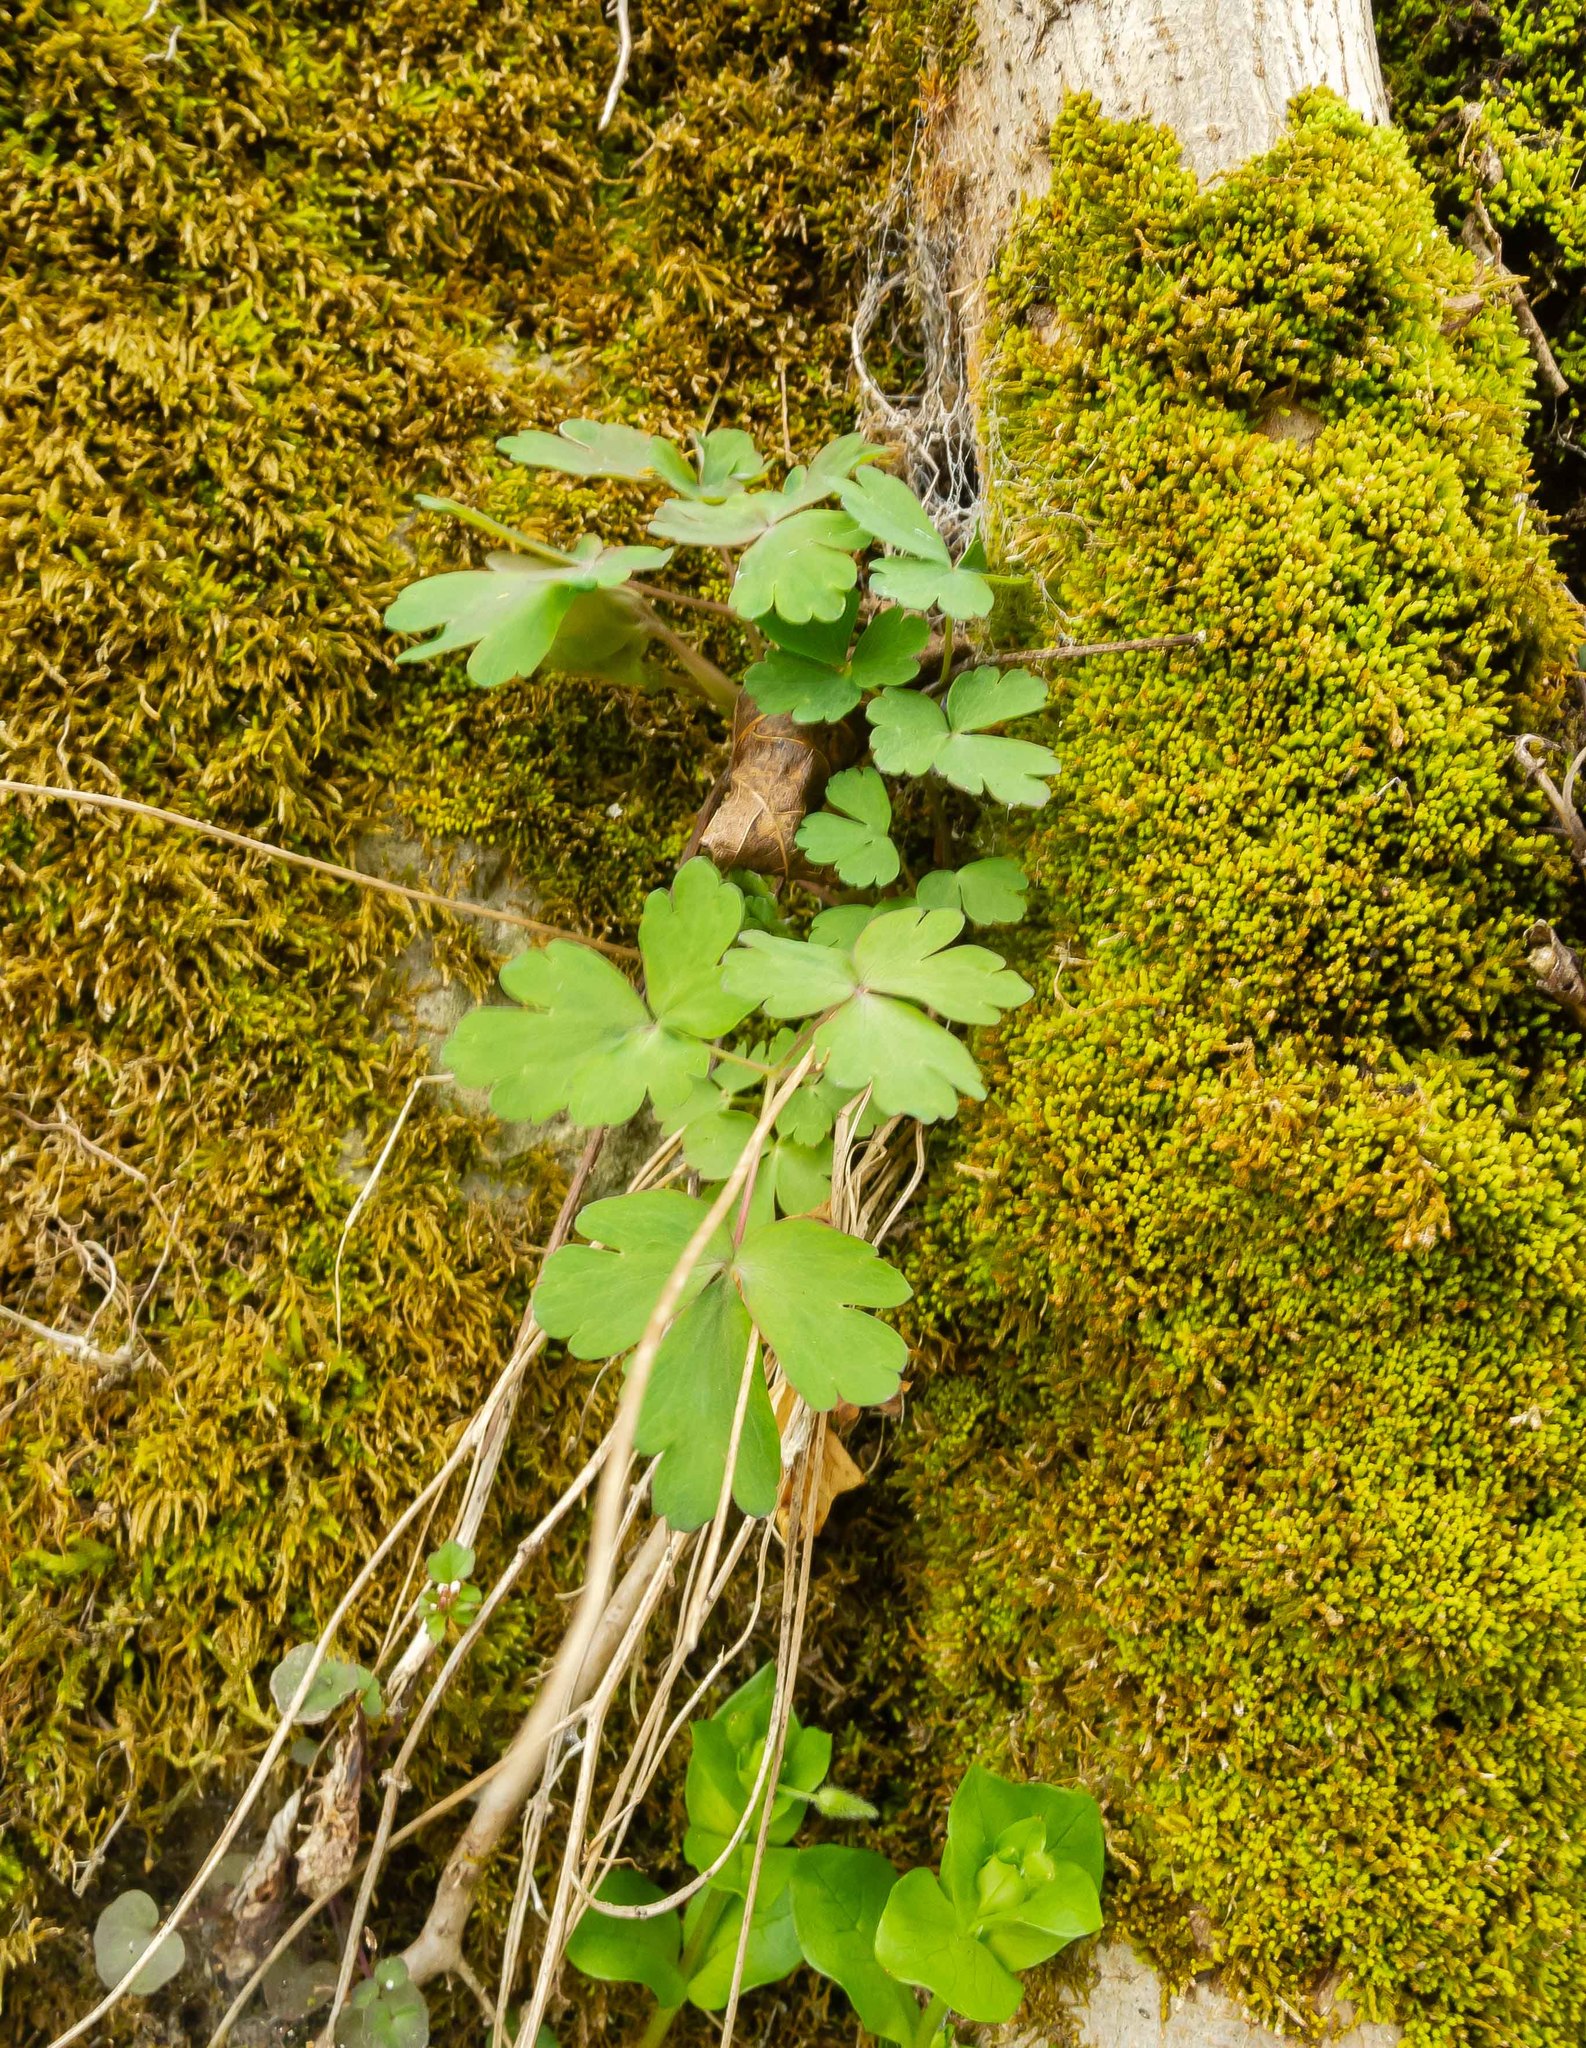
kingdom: Plantae
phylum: Tracheophyta
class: Magnoliopsida
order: Ranunculales
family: Ranunculaceae
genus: Aquilegia
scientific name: Aquilegia canadensis
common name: American columbine
